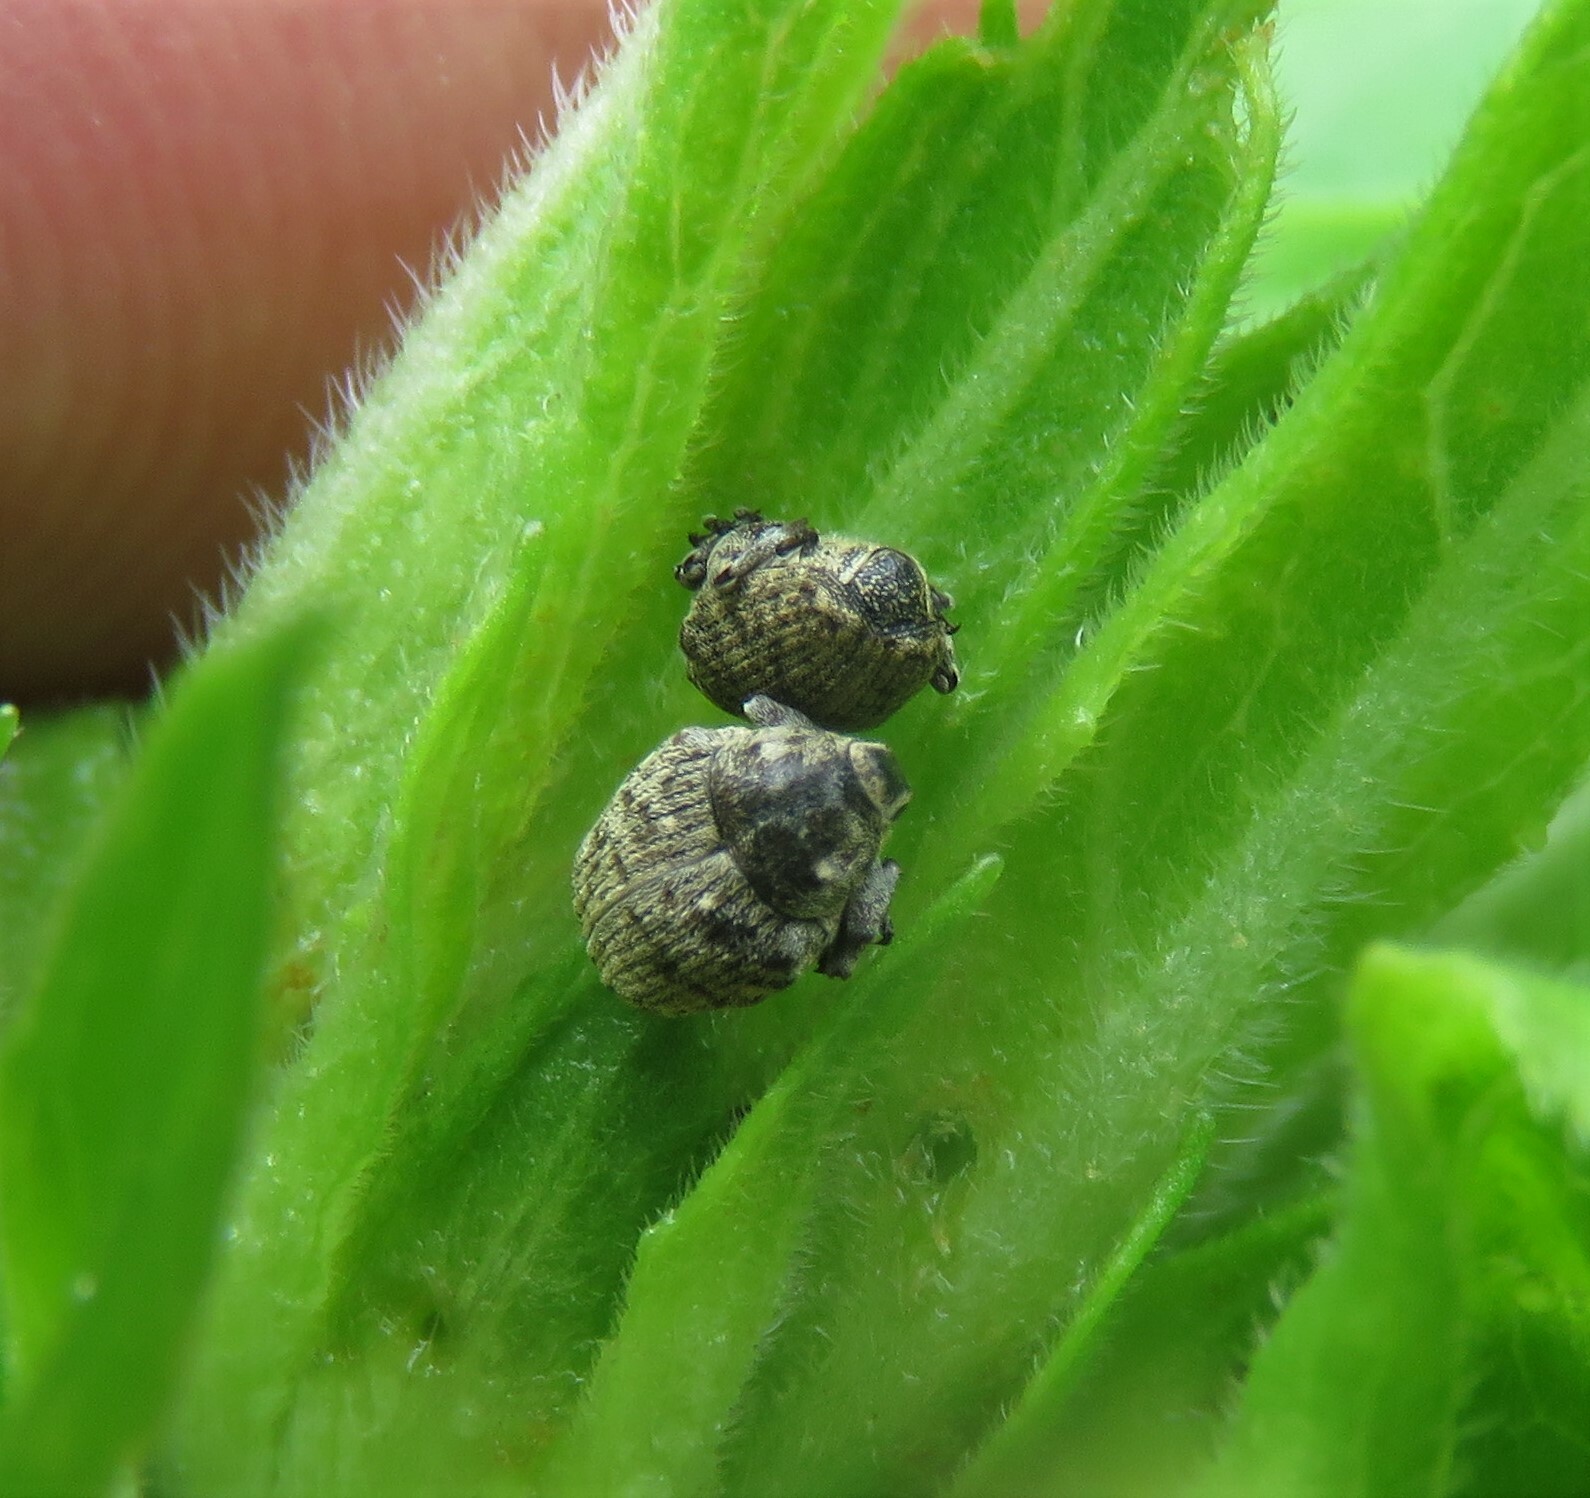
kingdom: Animalia
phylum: Arthropoda
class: Insecta
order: Coleoptera
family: Curculionidae
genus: Acanthoscelidius
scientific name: Acanthoscelidius acephalus
